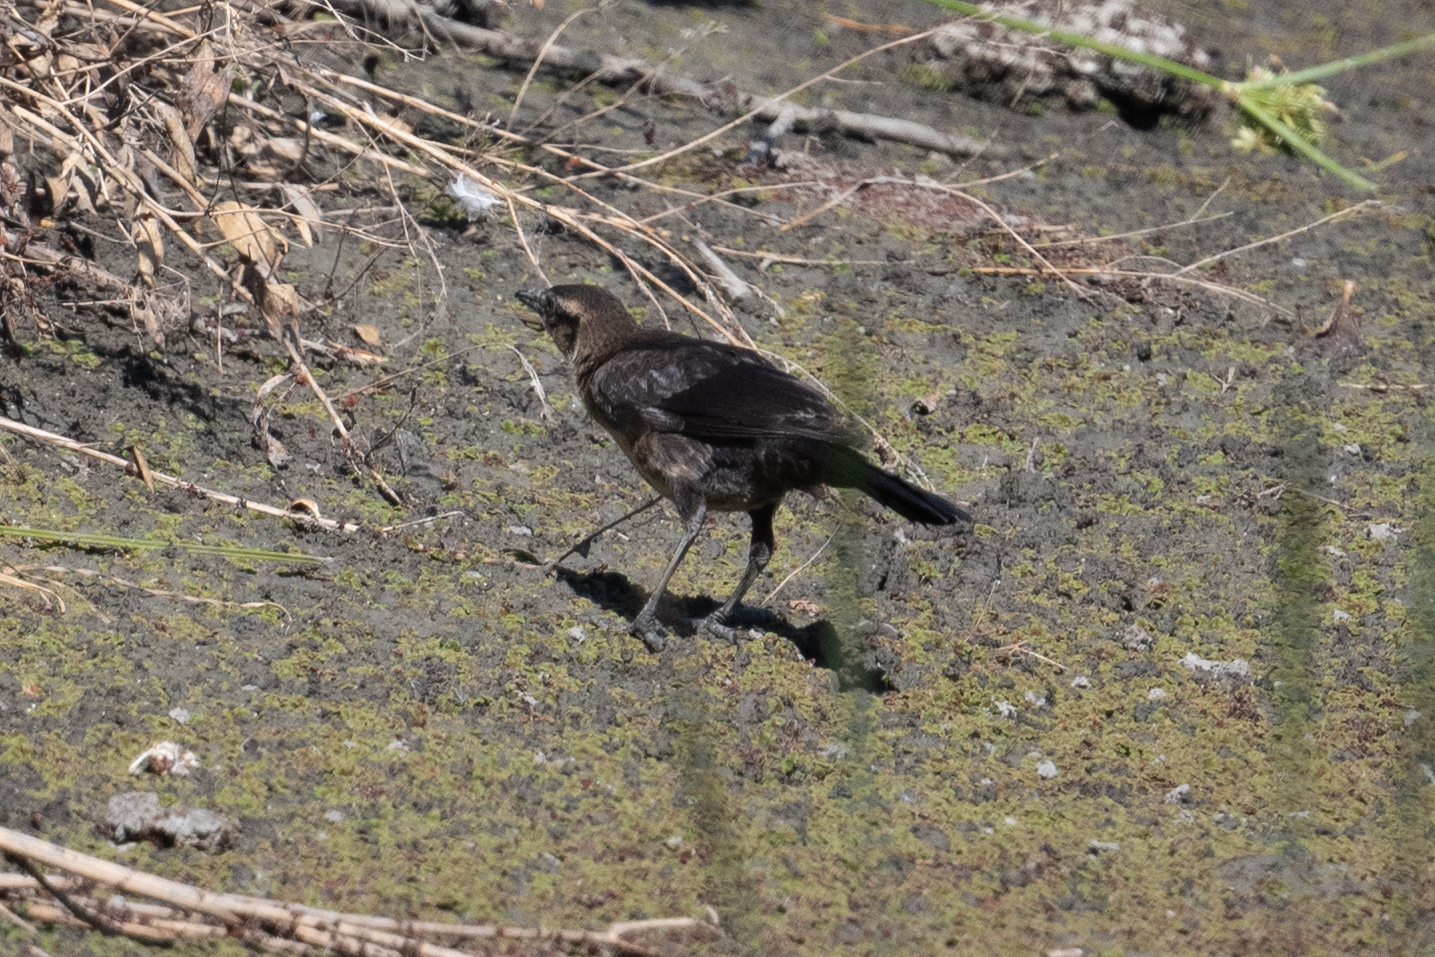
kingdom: Animalia
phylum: Chordata
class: Aves
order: Passeriformes
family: Icteridae
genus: Quiscalus
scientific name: Quiscalus mexicanus
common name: Great-tailed grackle
